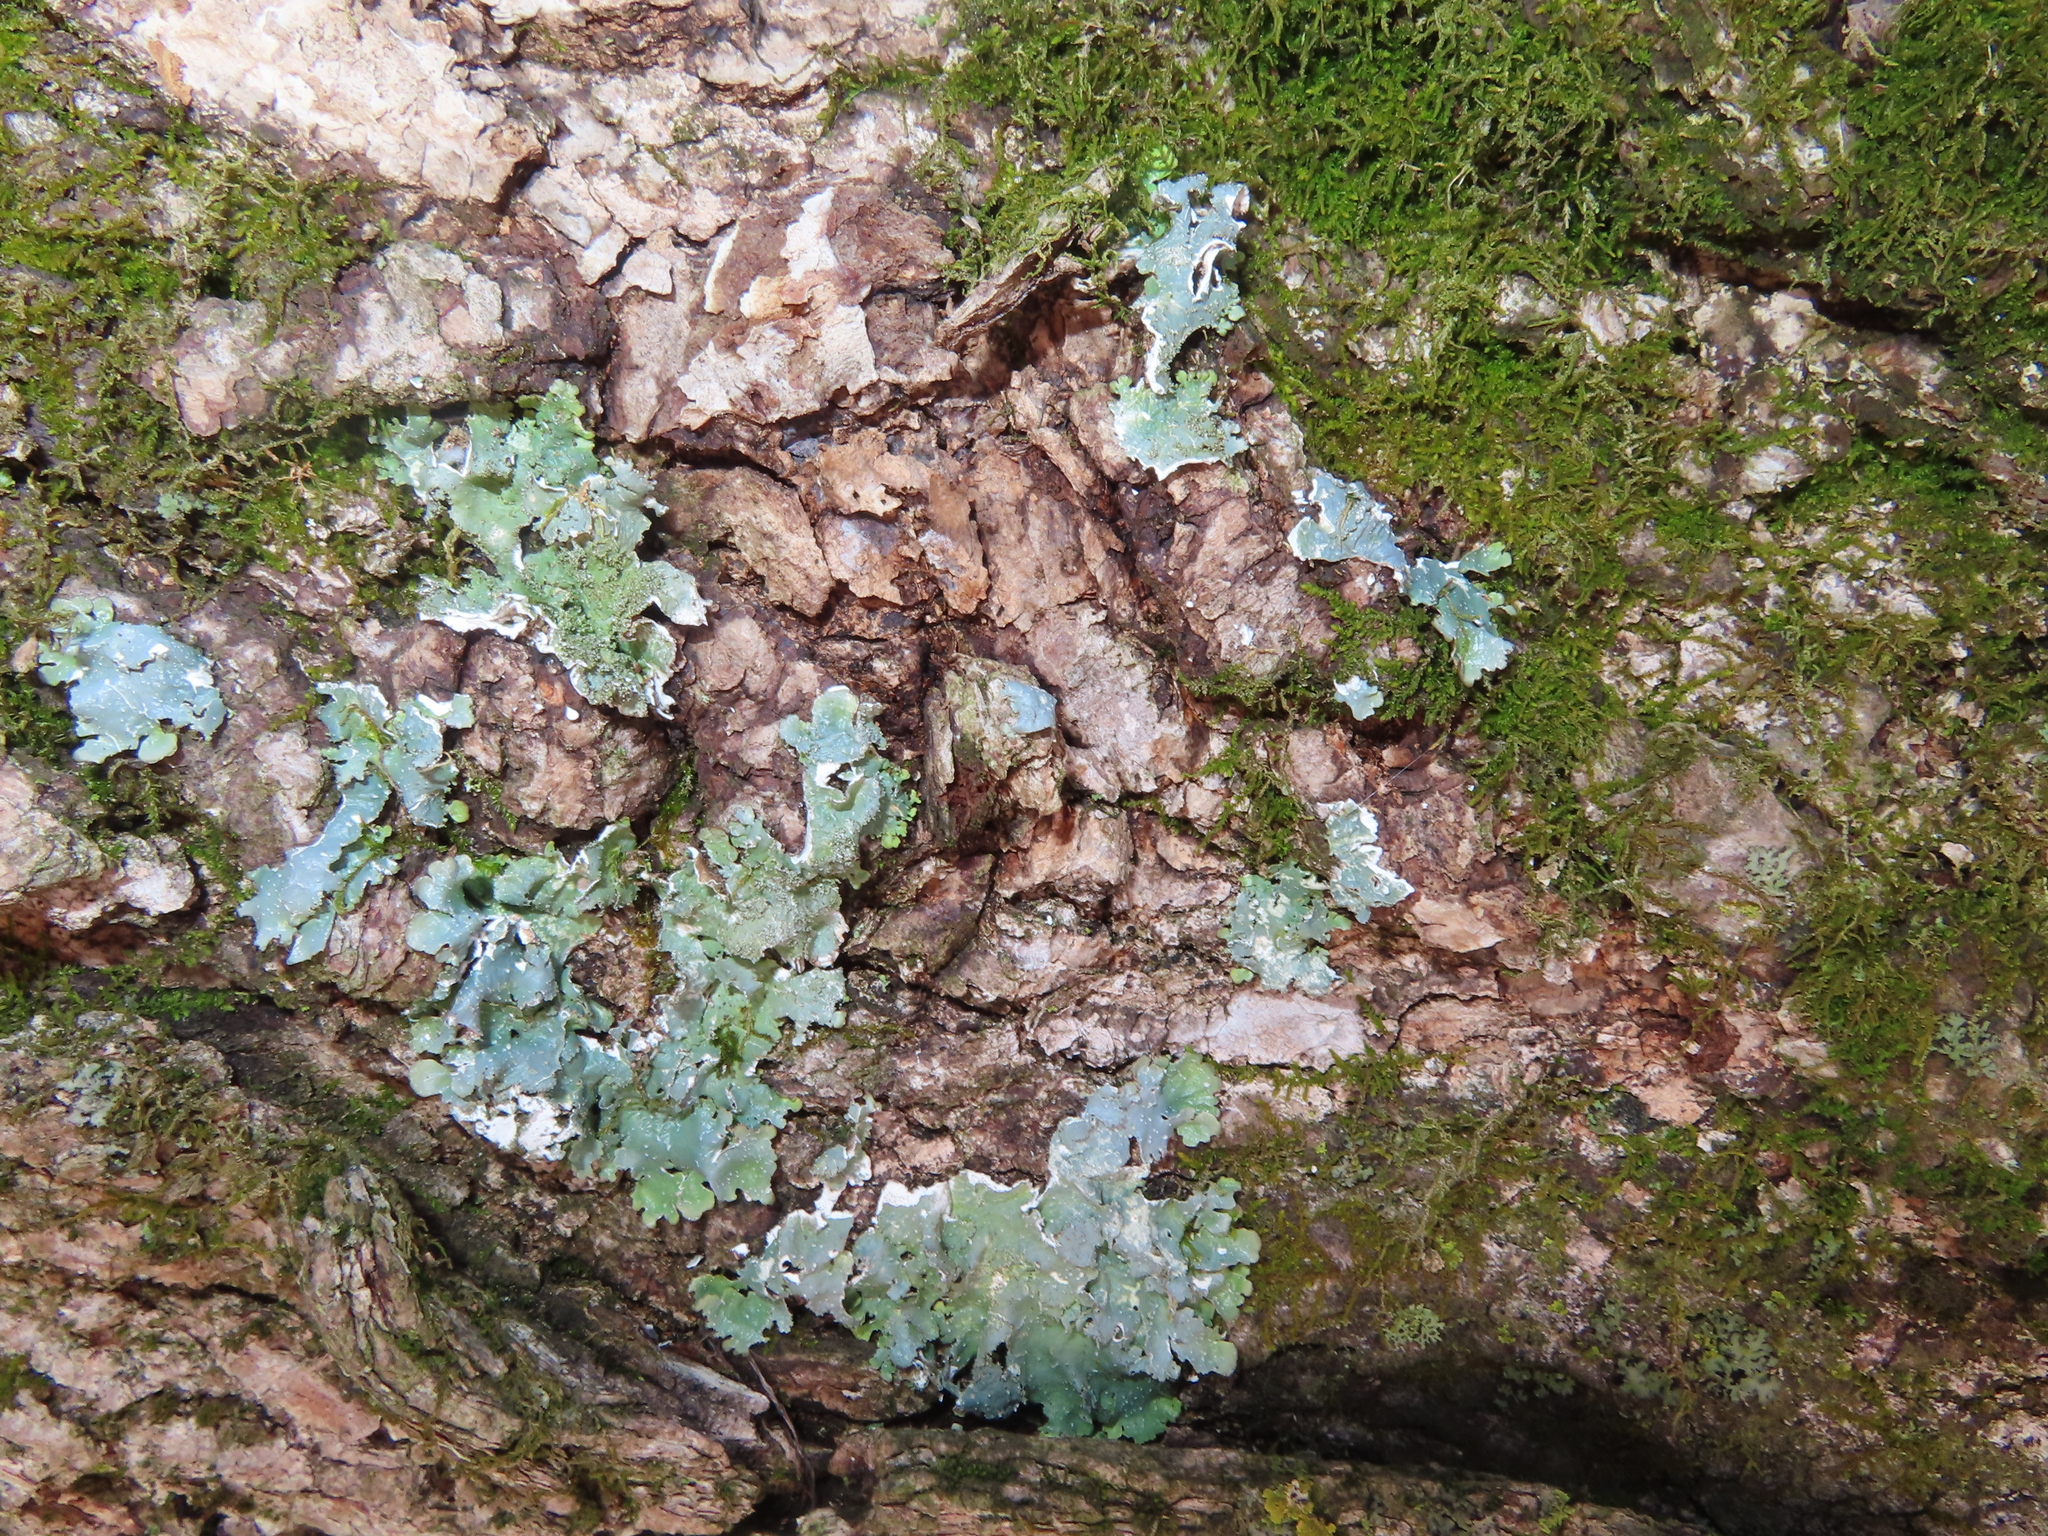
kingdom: Fungi
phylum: Ascomycota
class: Lecanoromycetes
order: Lecanorales
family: Parmeliaceae
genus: Punctelia
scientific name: Punctelia rudecta
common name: Rough speckled shield lichen
